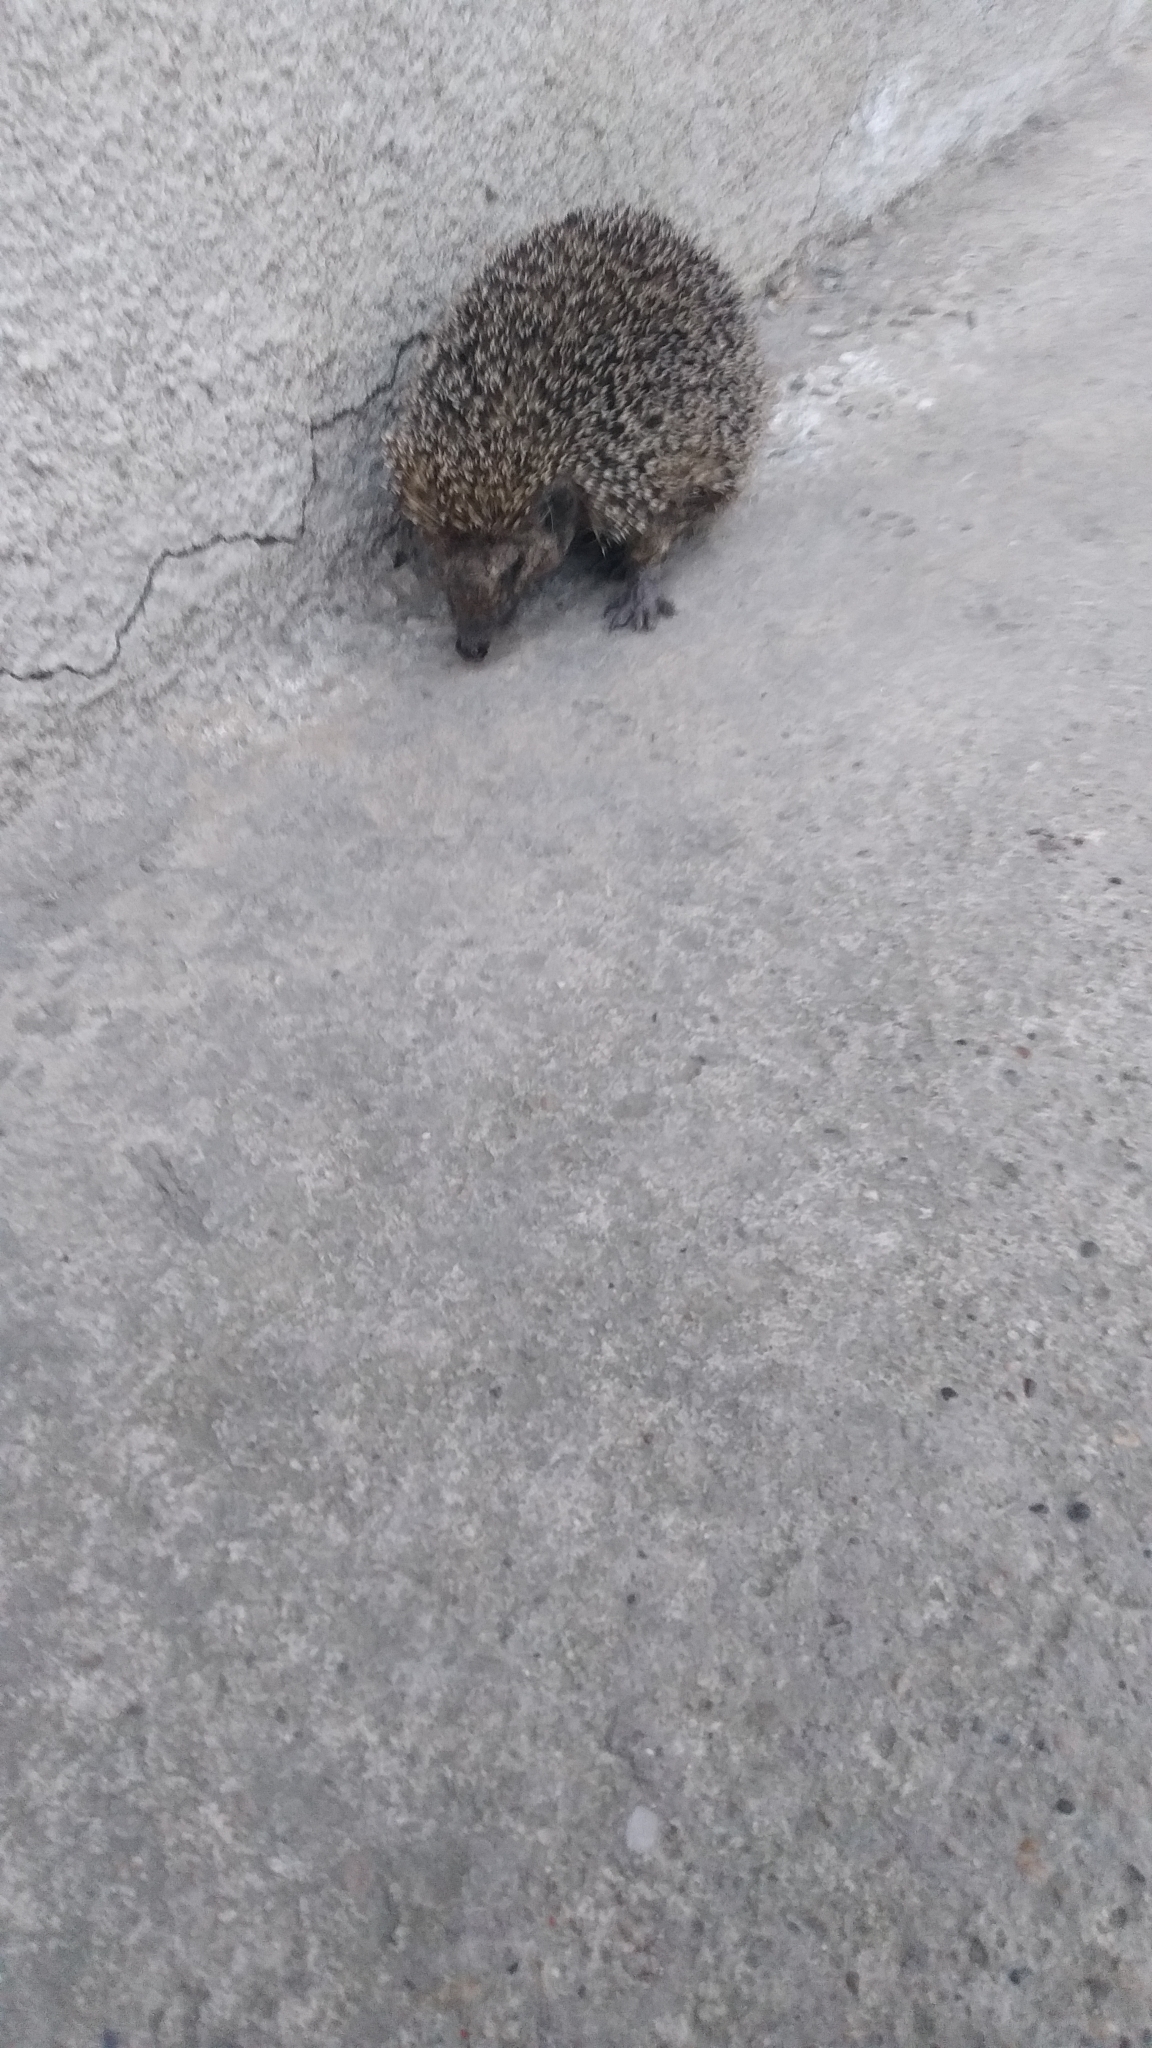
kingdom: Animalia
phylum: Chordata
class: Mammalia
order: Erinaceomorpha
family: Erinaceidae
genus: Erinaceus
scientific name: Erinaceus roumanicus
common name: Northern white-breasted hedgehog
